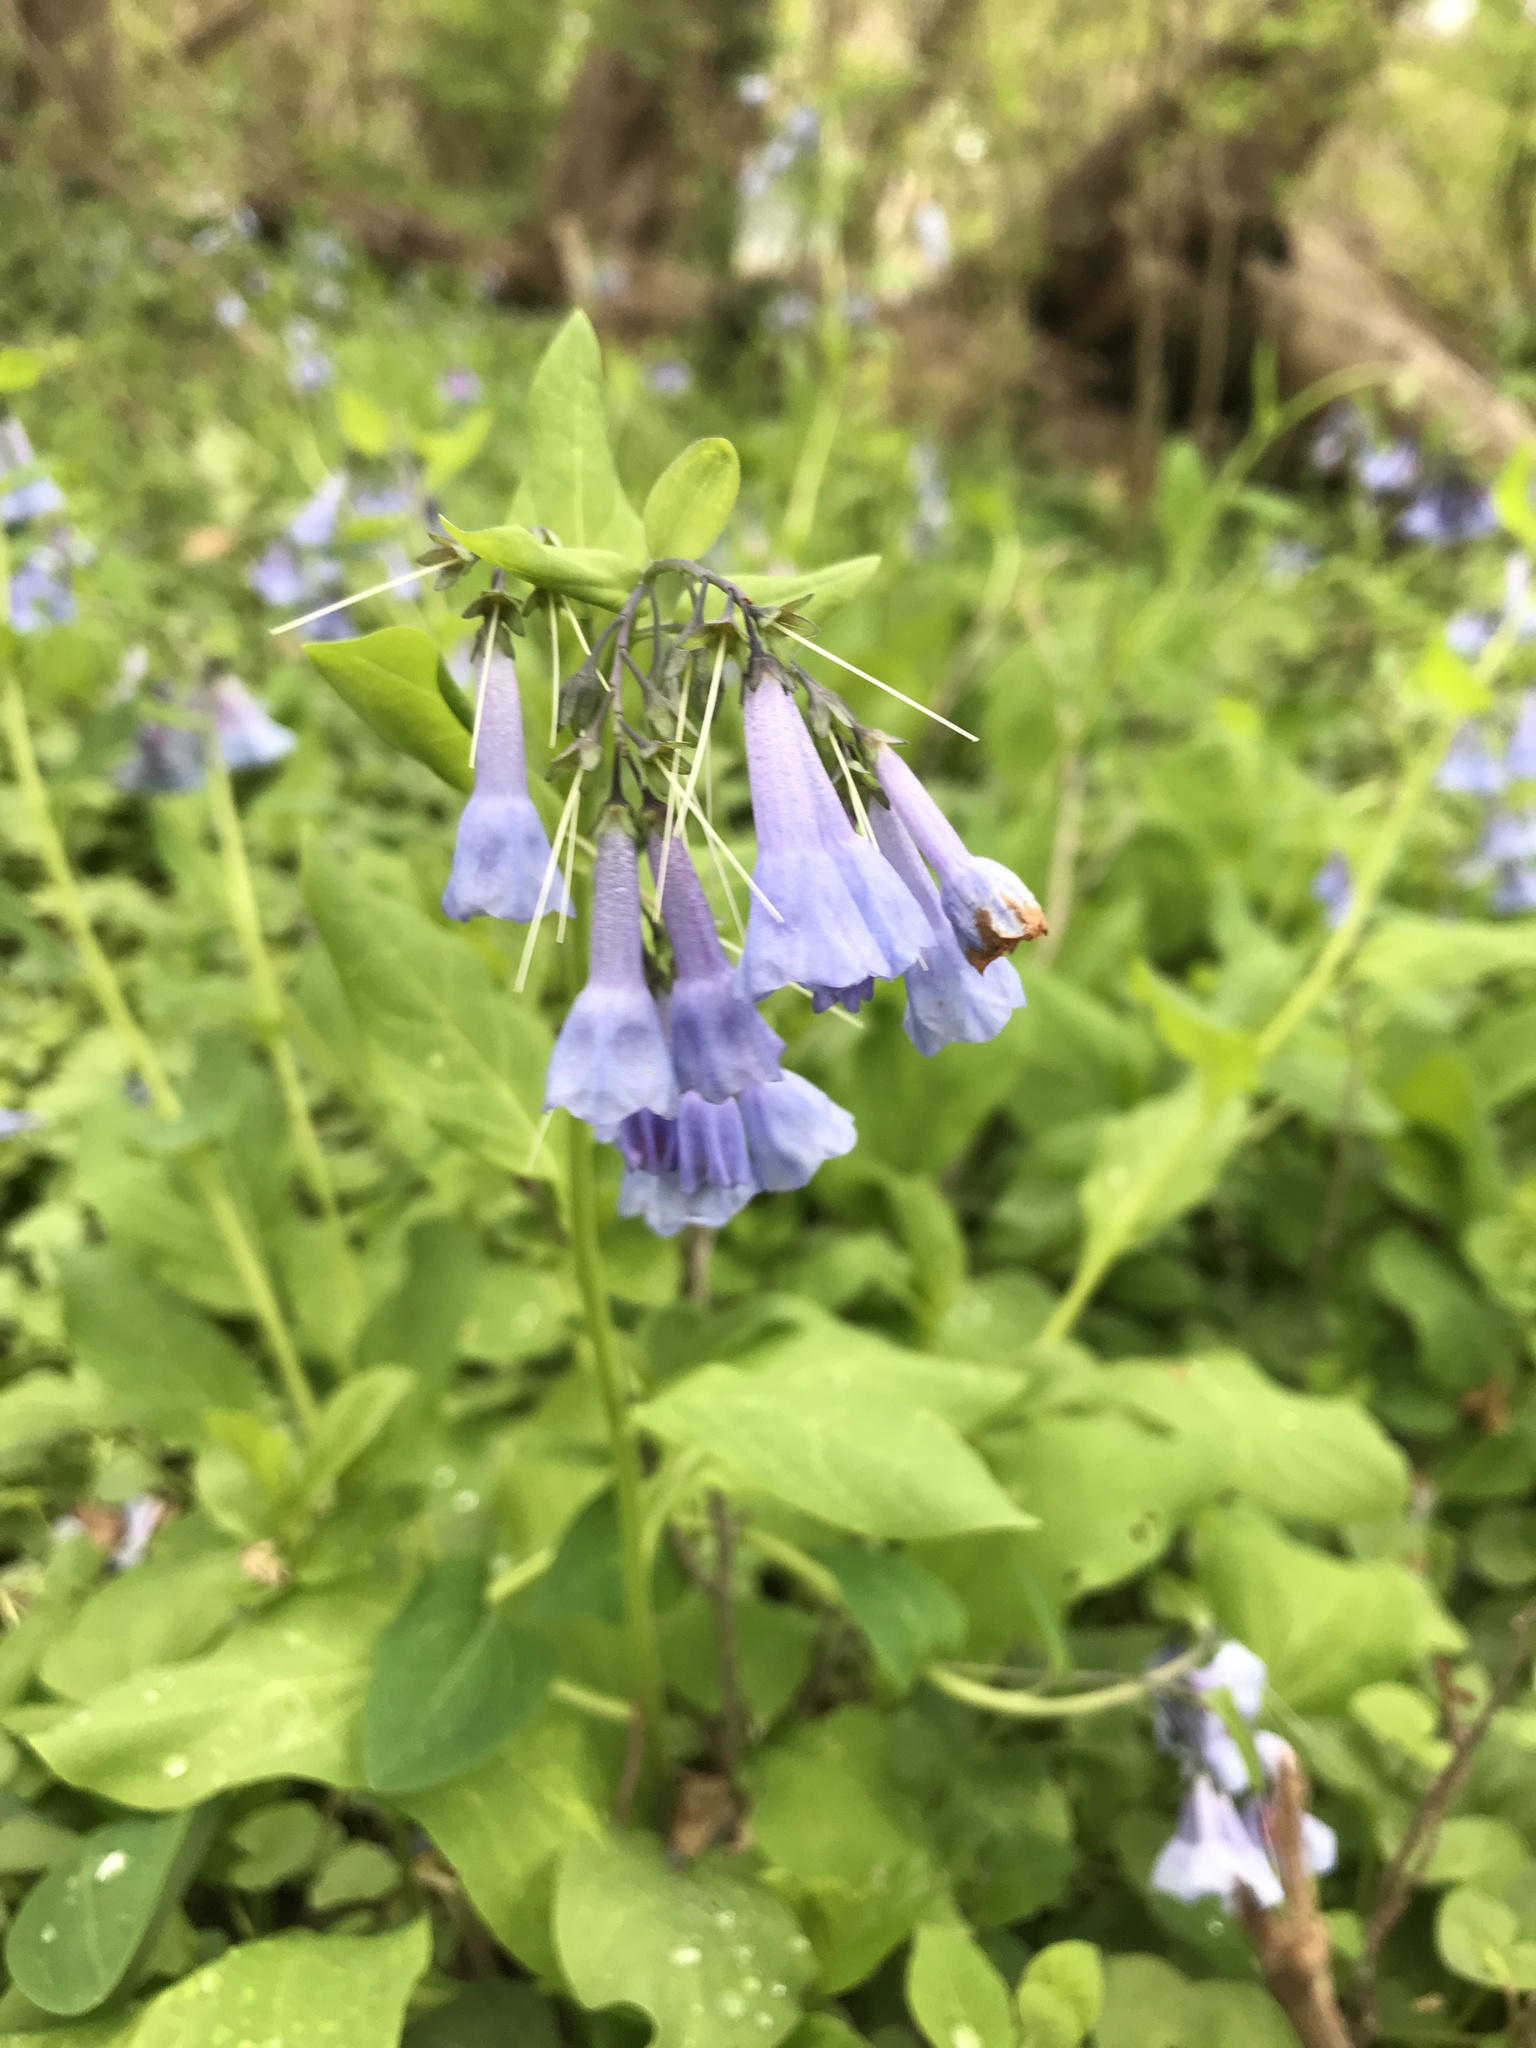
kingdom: Plantae
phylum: Tracheophyta
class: Magnoliopsida
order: Boraginales
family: Boraginaceae
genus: Mertensia
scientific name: Mertensia virginica
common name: Virginia bluebells
